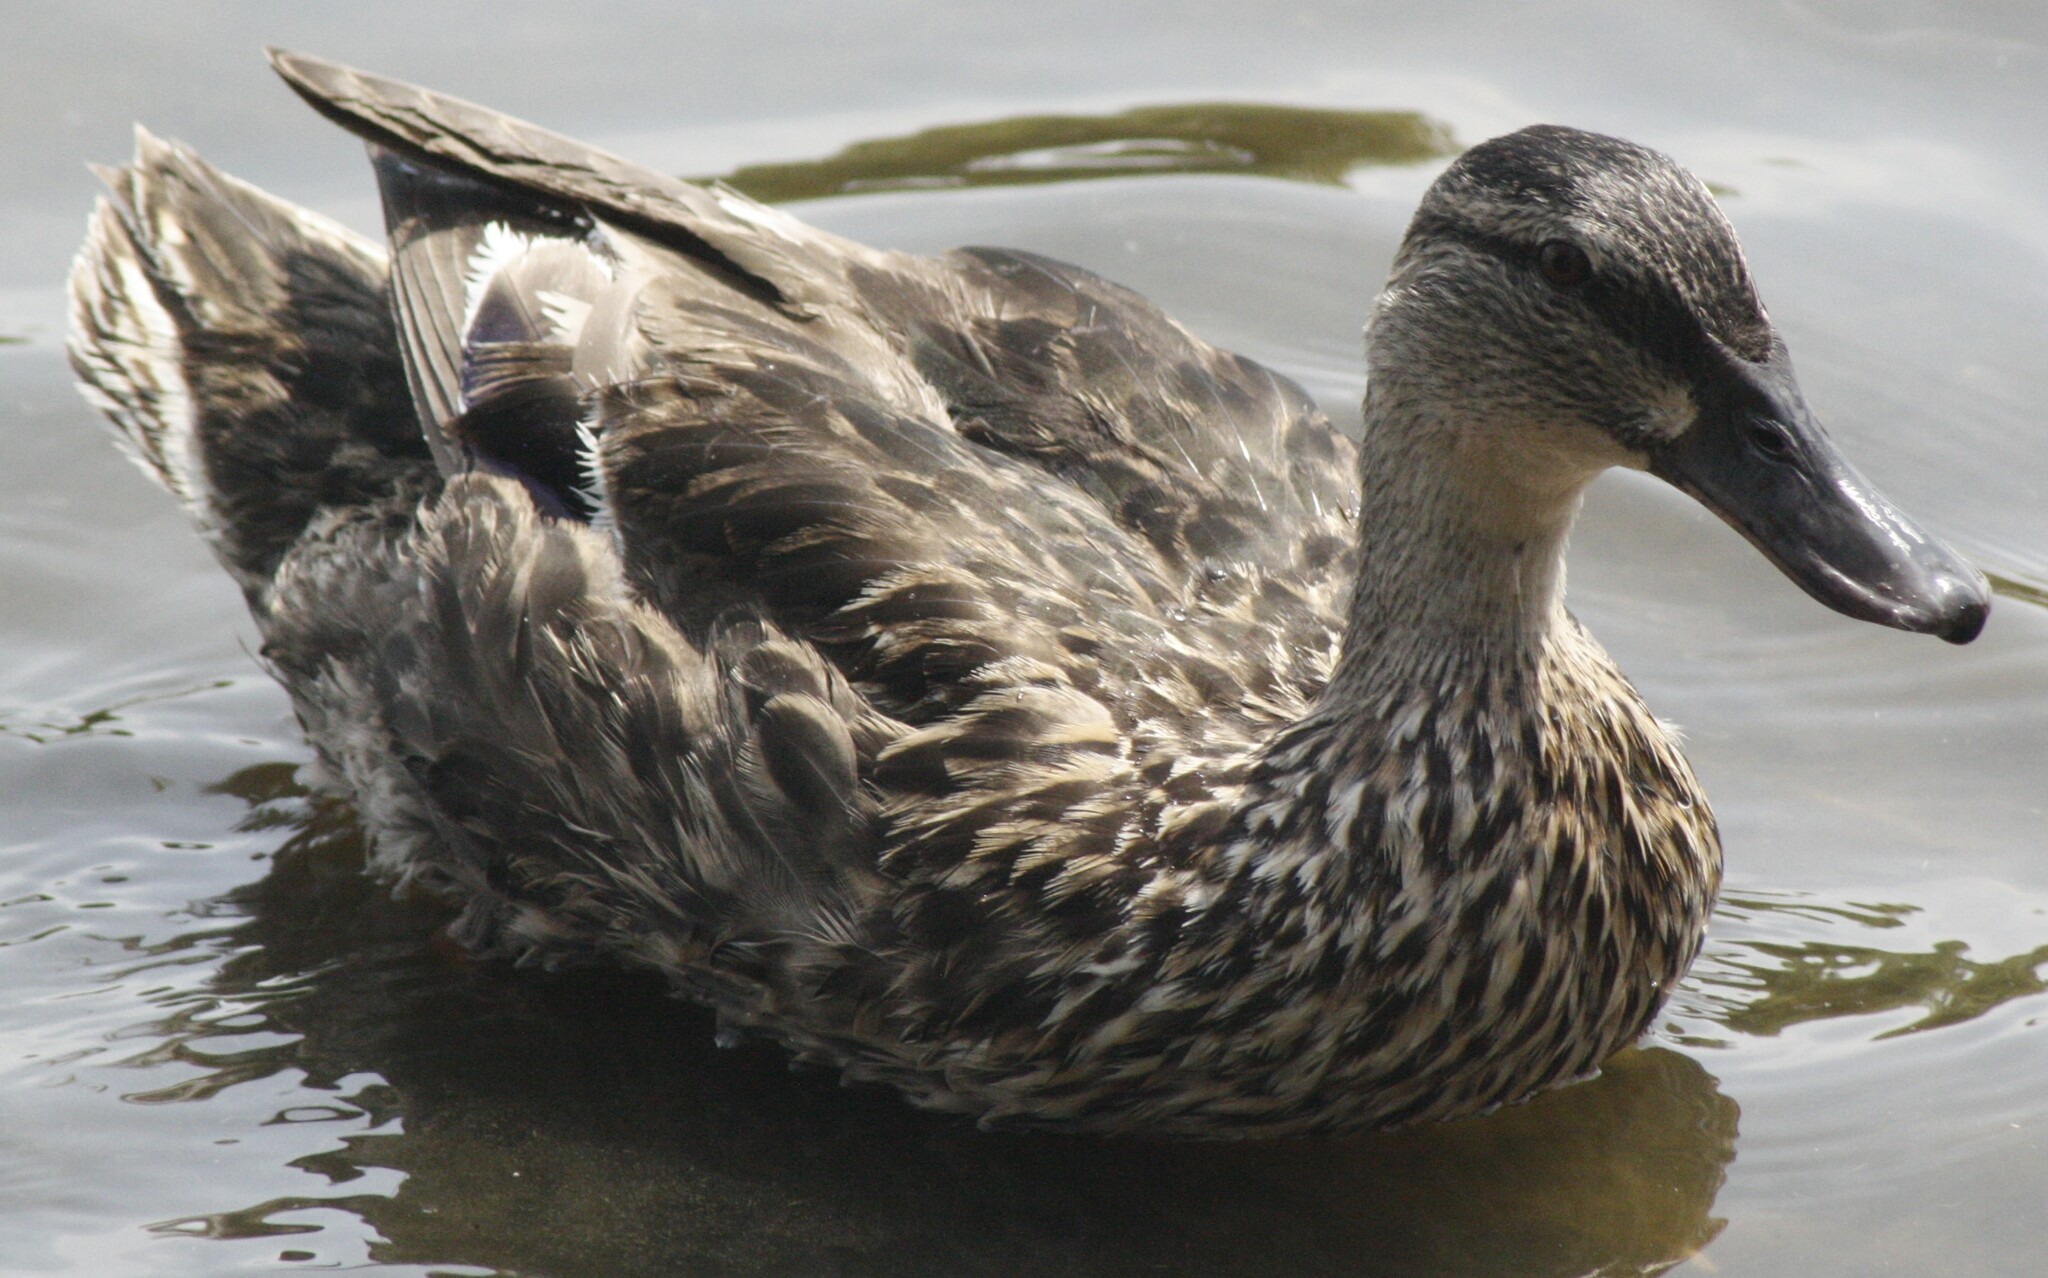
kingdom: Animalia
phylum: Chordata
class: Aves
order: Anseriformes
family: Anatidae
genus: Anas
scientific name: Anas platyrhynchos
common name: Mallard
